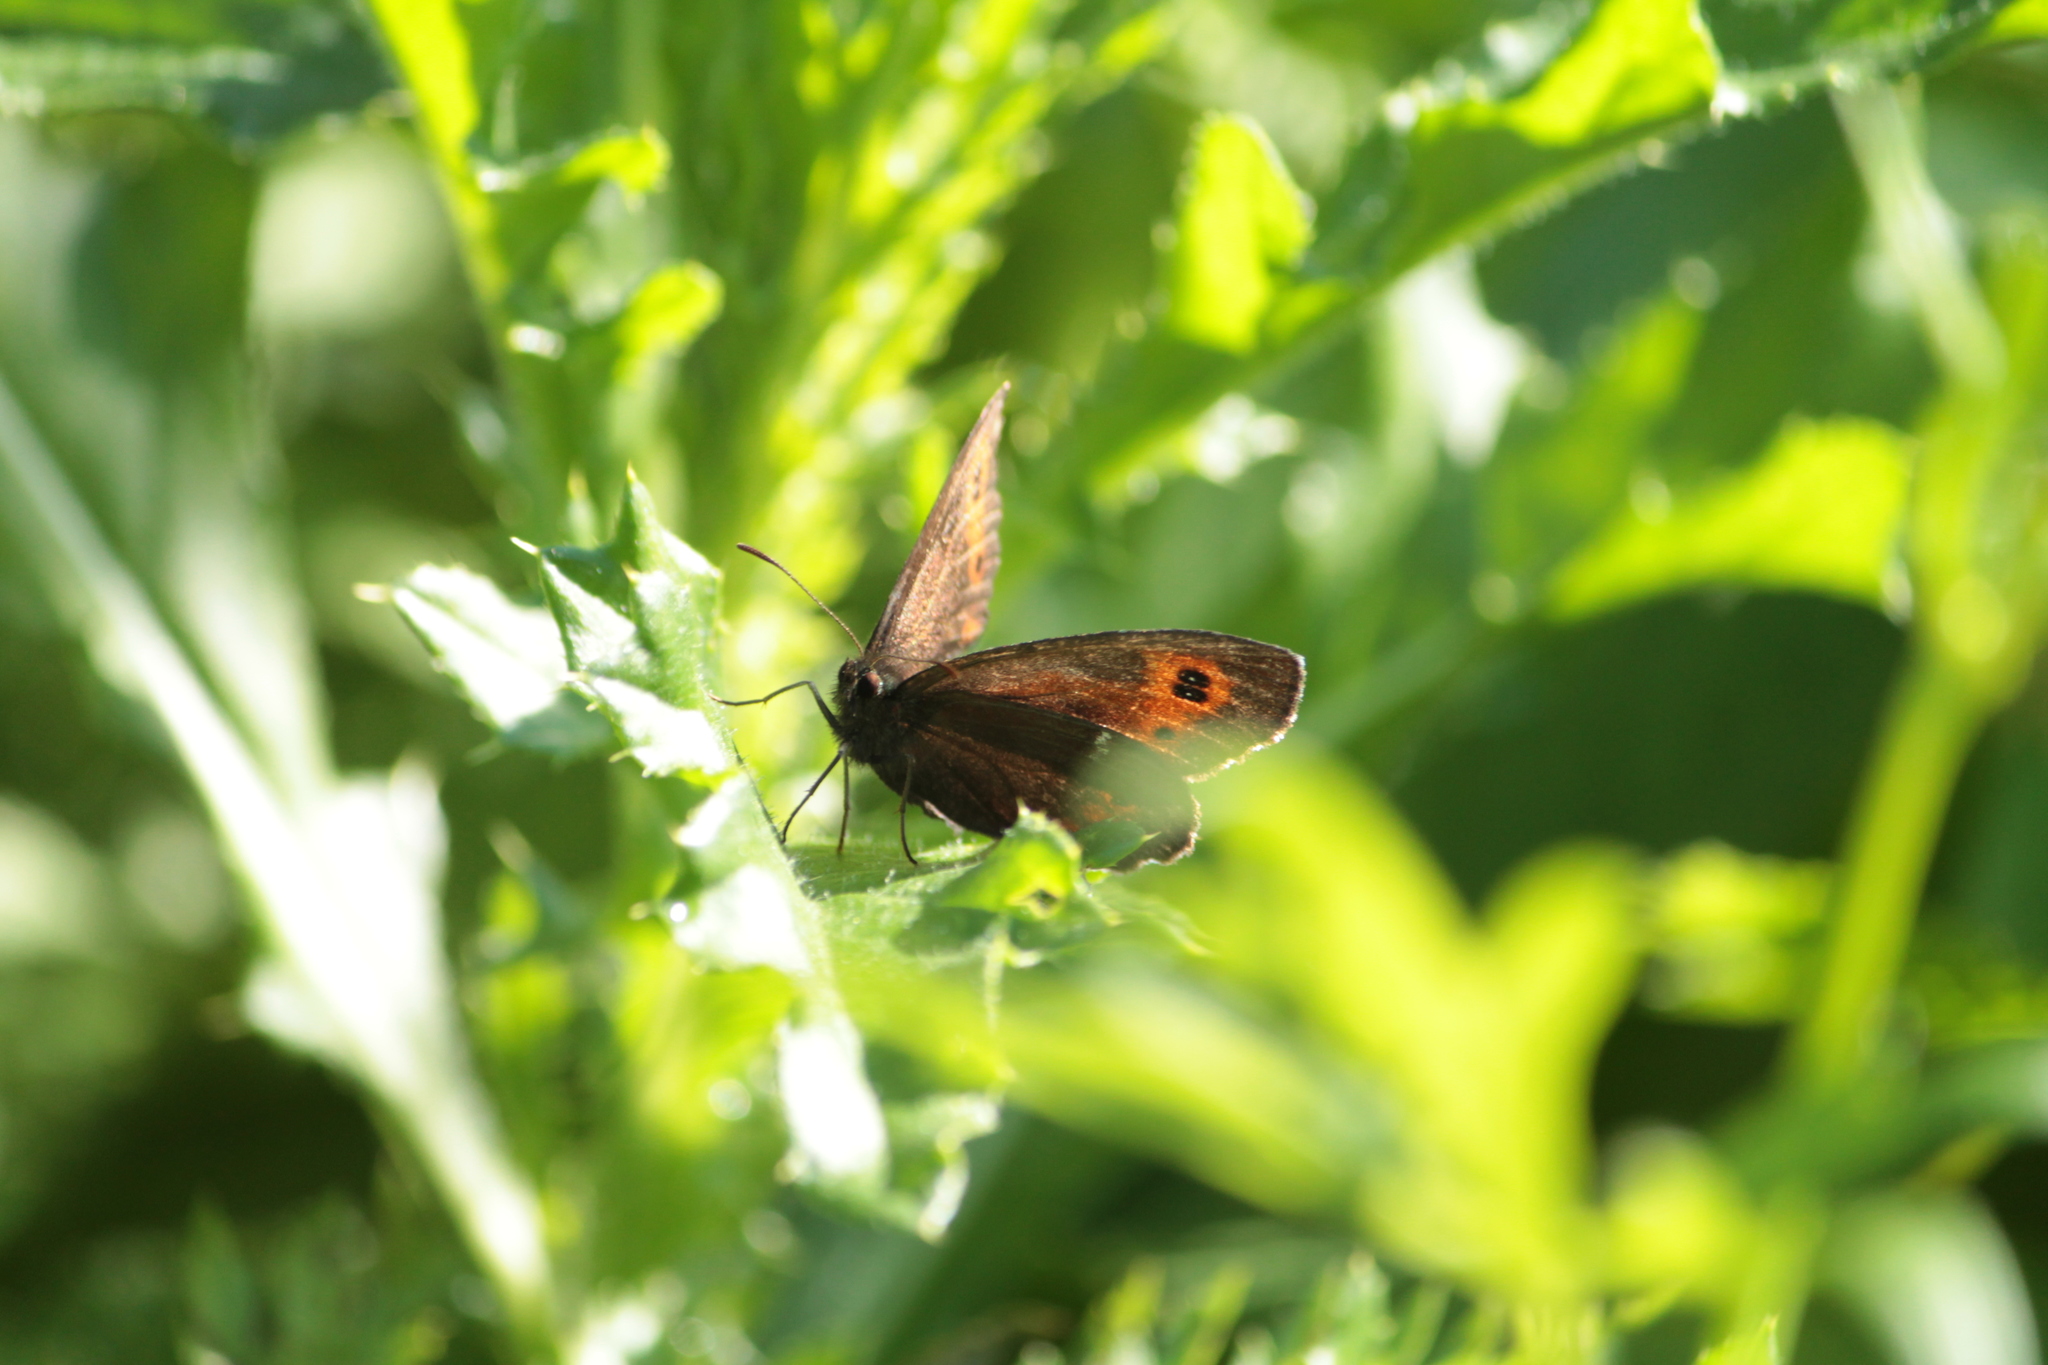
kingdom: Animalia
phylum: Arthropoda
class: Insecta
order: Lepidoptera
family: Nymphalidae
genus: Erebia
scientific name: Erebia ligea
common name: Arran brown
